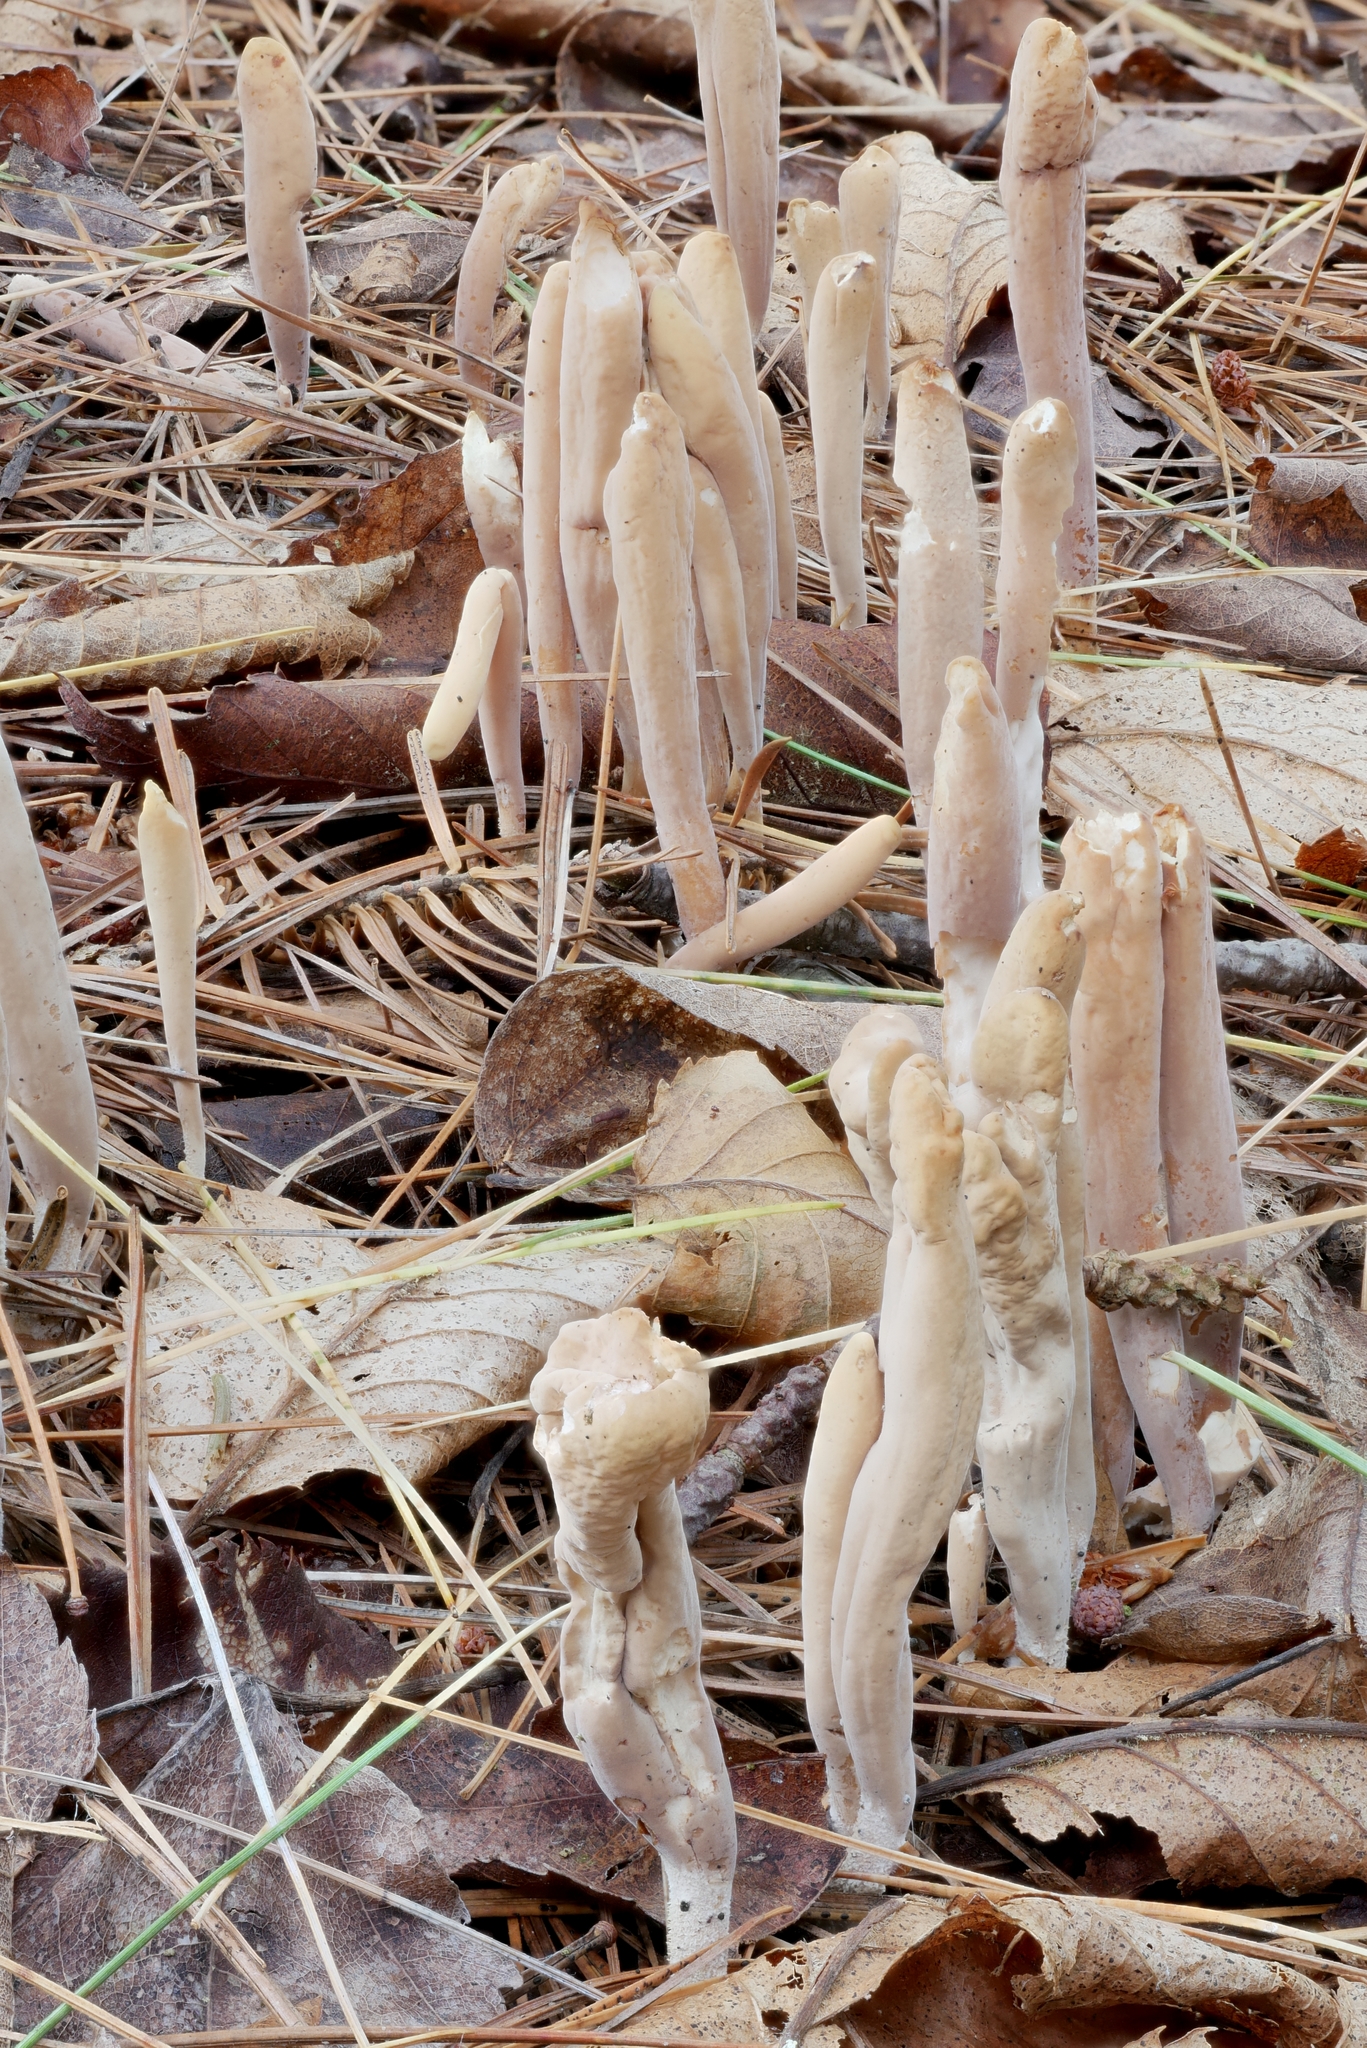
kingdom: Fungi
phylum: Basidiomycota
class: Agaricomycetes
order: Gomphales
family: Clavariadelphaceae
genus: Clavariadelphus
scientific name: Clavariadelphus ligula
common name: Ochre club
